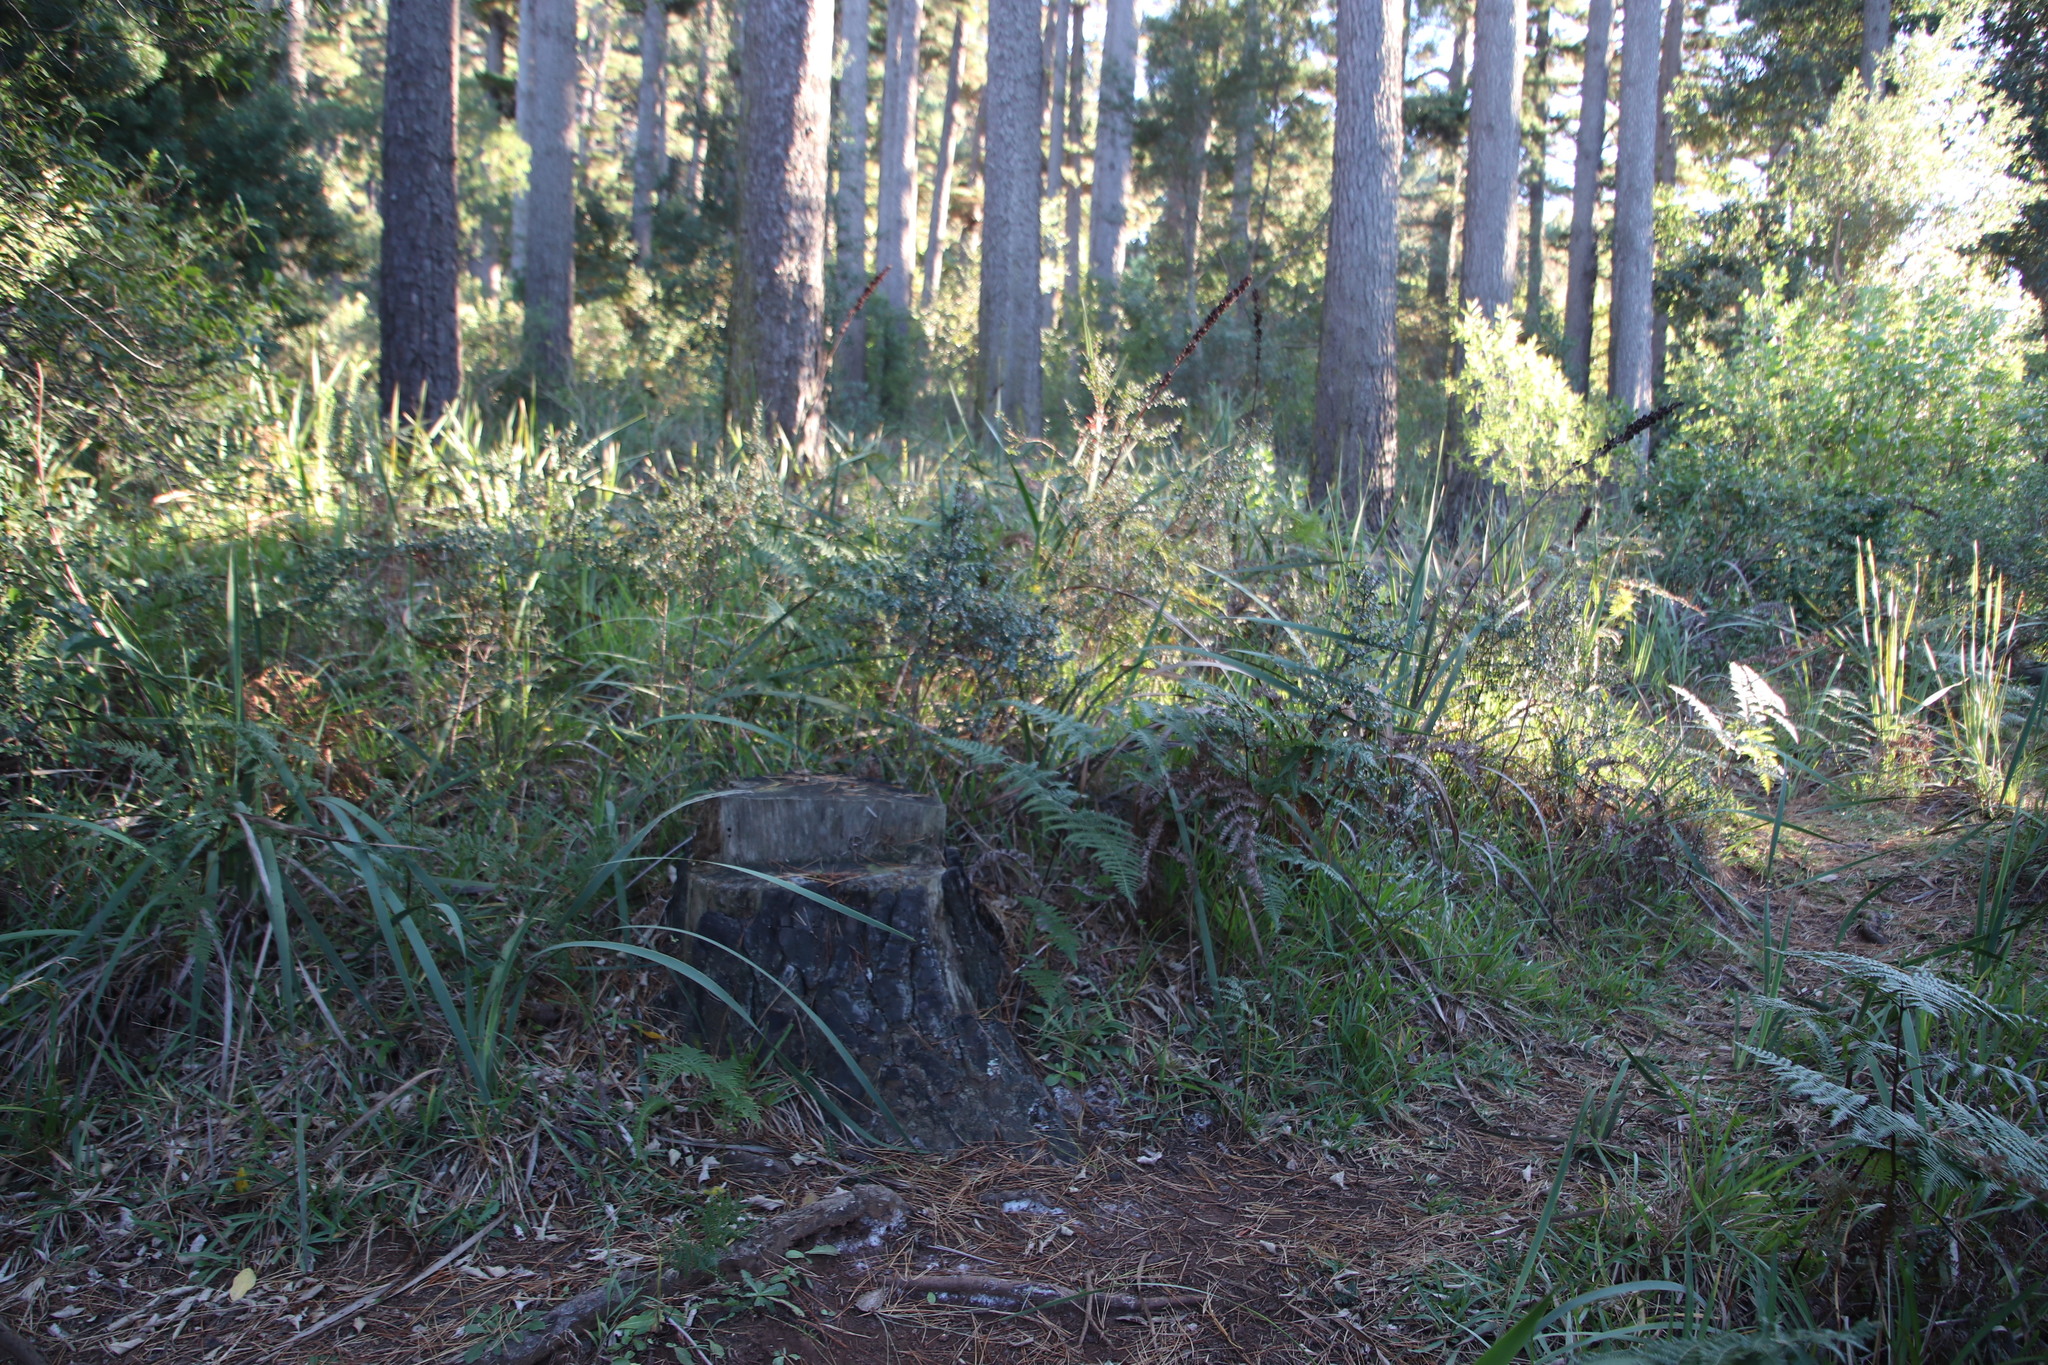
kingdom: Plantae
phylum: Tracheophyta
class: Magnoliopsida
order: Ericales
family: Primulaceae
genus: Myrsine
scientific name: Myrsine africana
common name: African-boxwood
